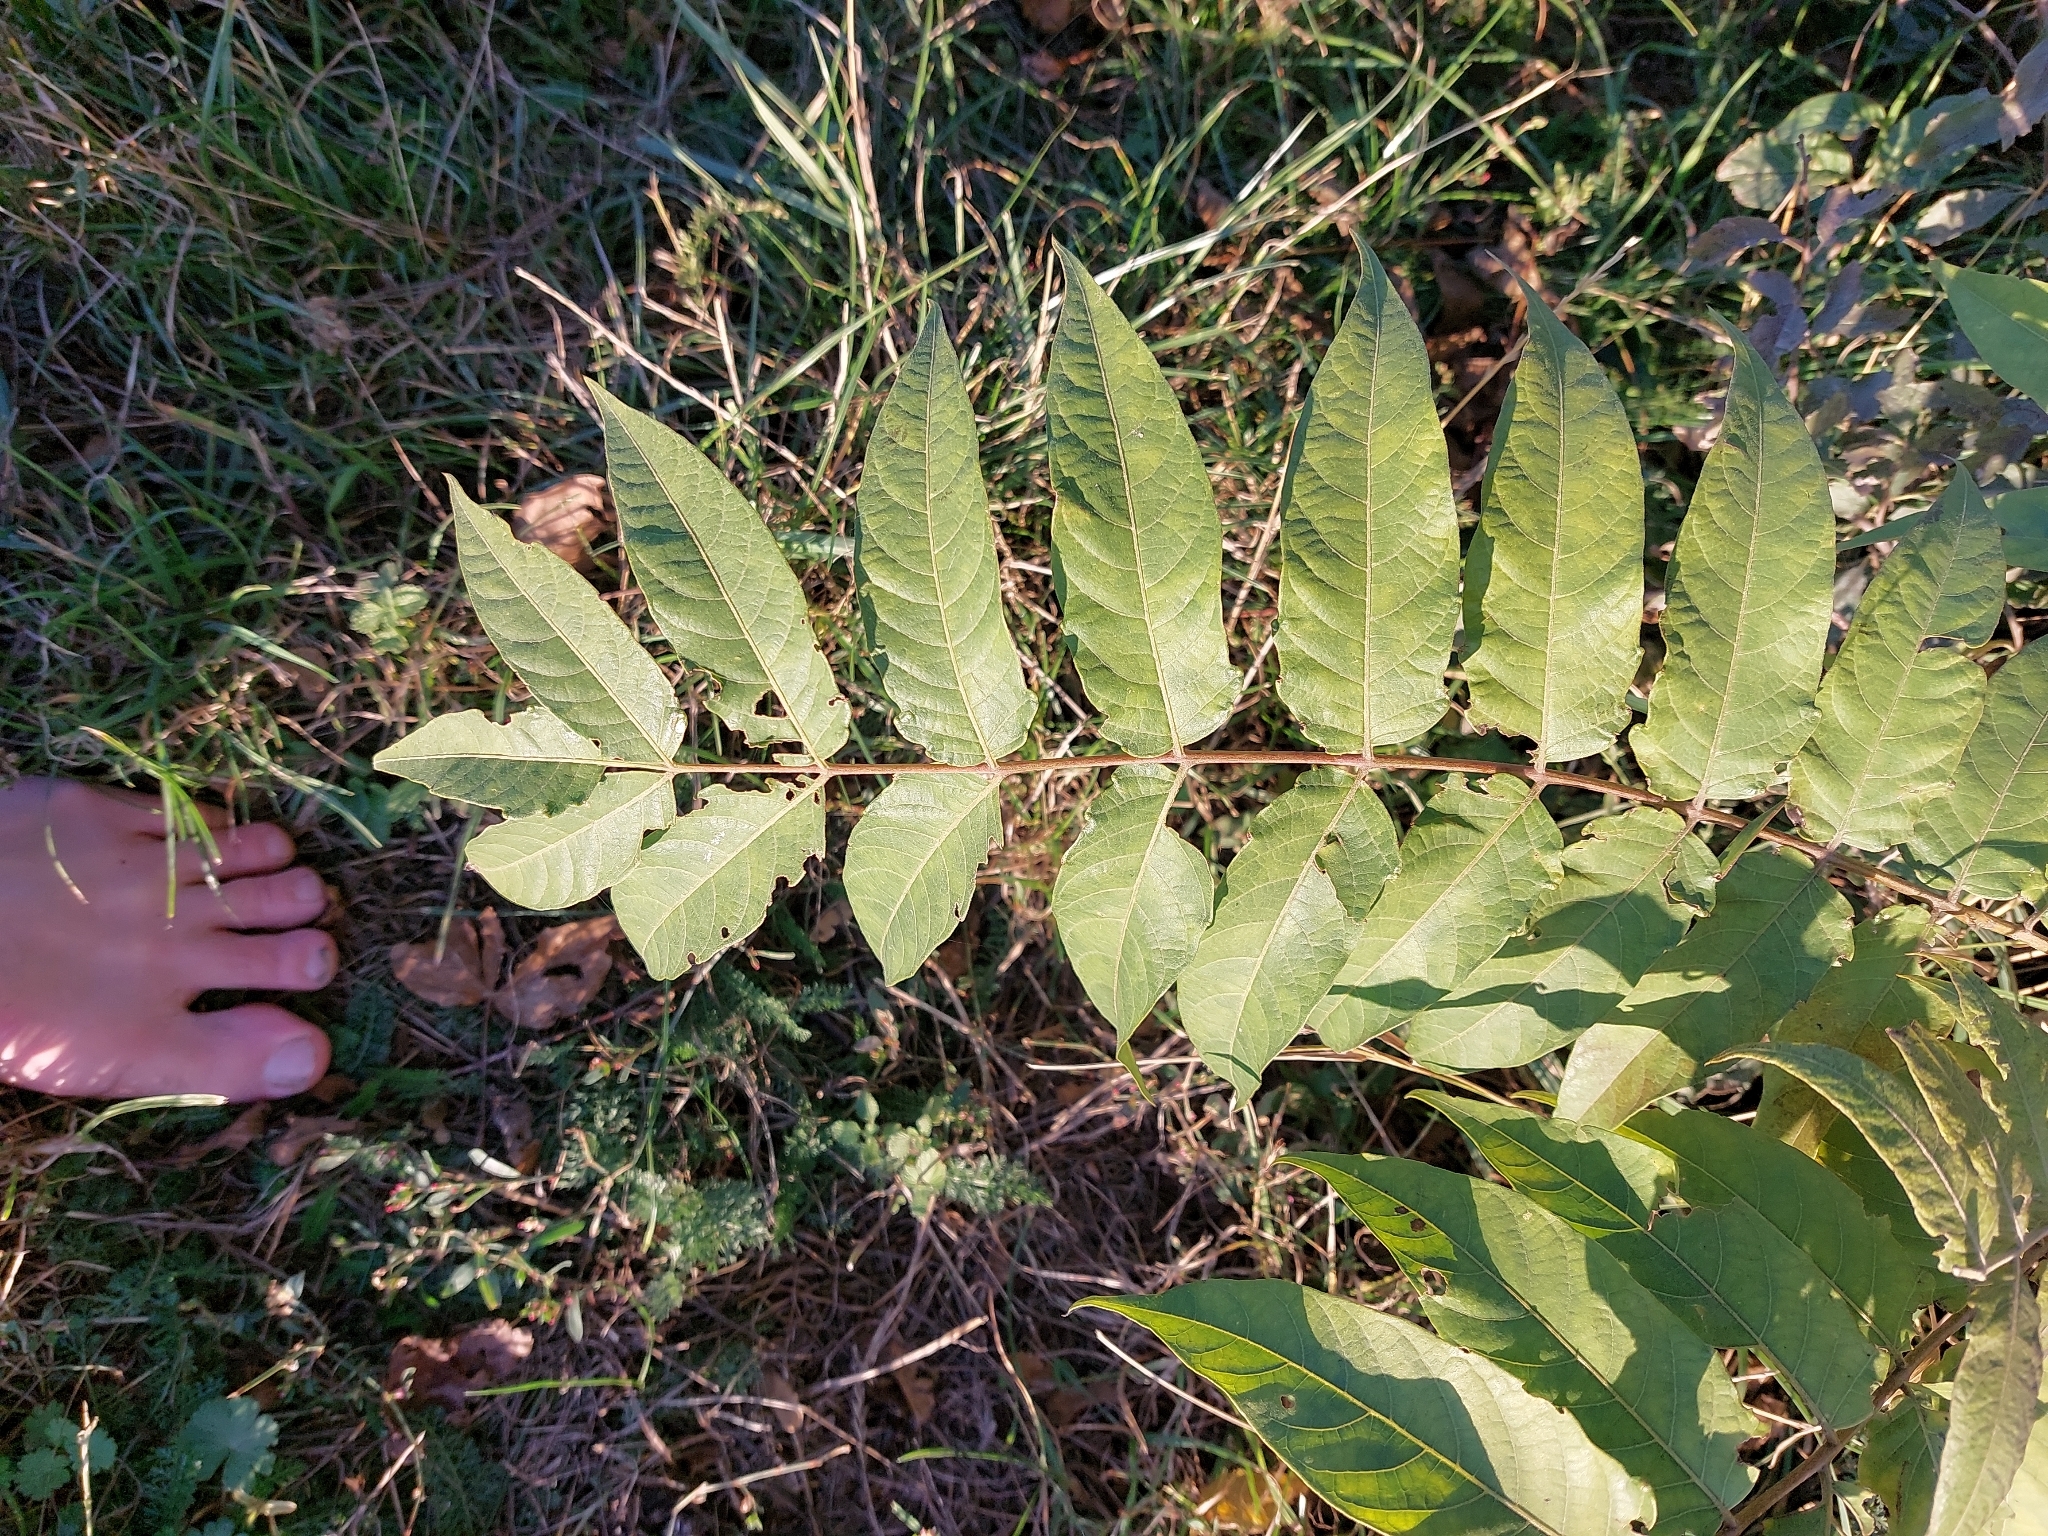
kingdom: Plantae
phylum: Tracheophyta
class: Magnoliopsida
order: Sapindales
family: Simaroubaceae
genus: Ailanthus
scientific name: Ailanthus altissima
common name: Tree-of-heaven
